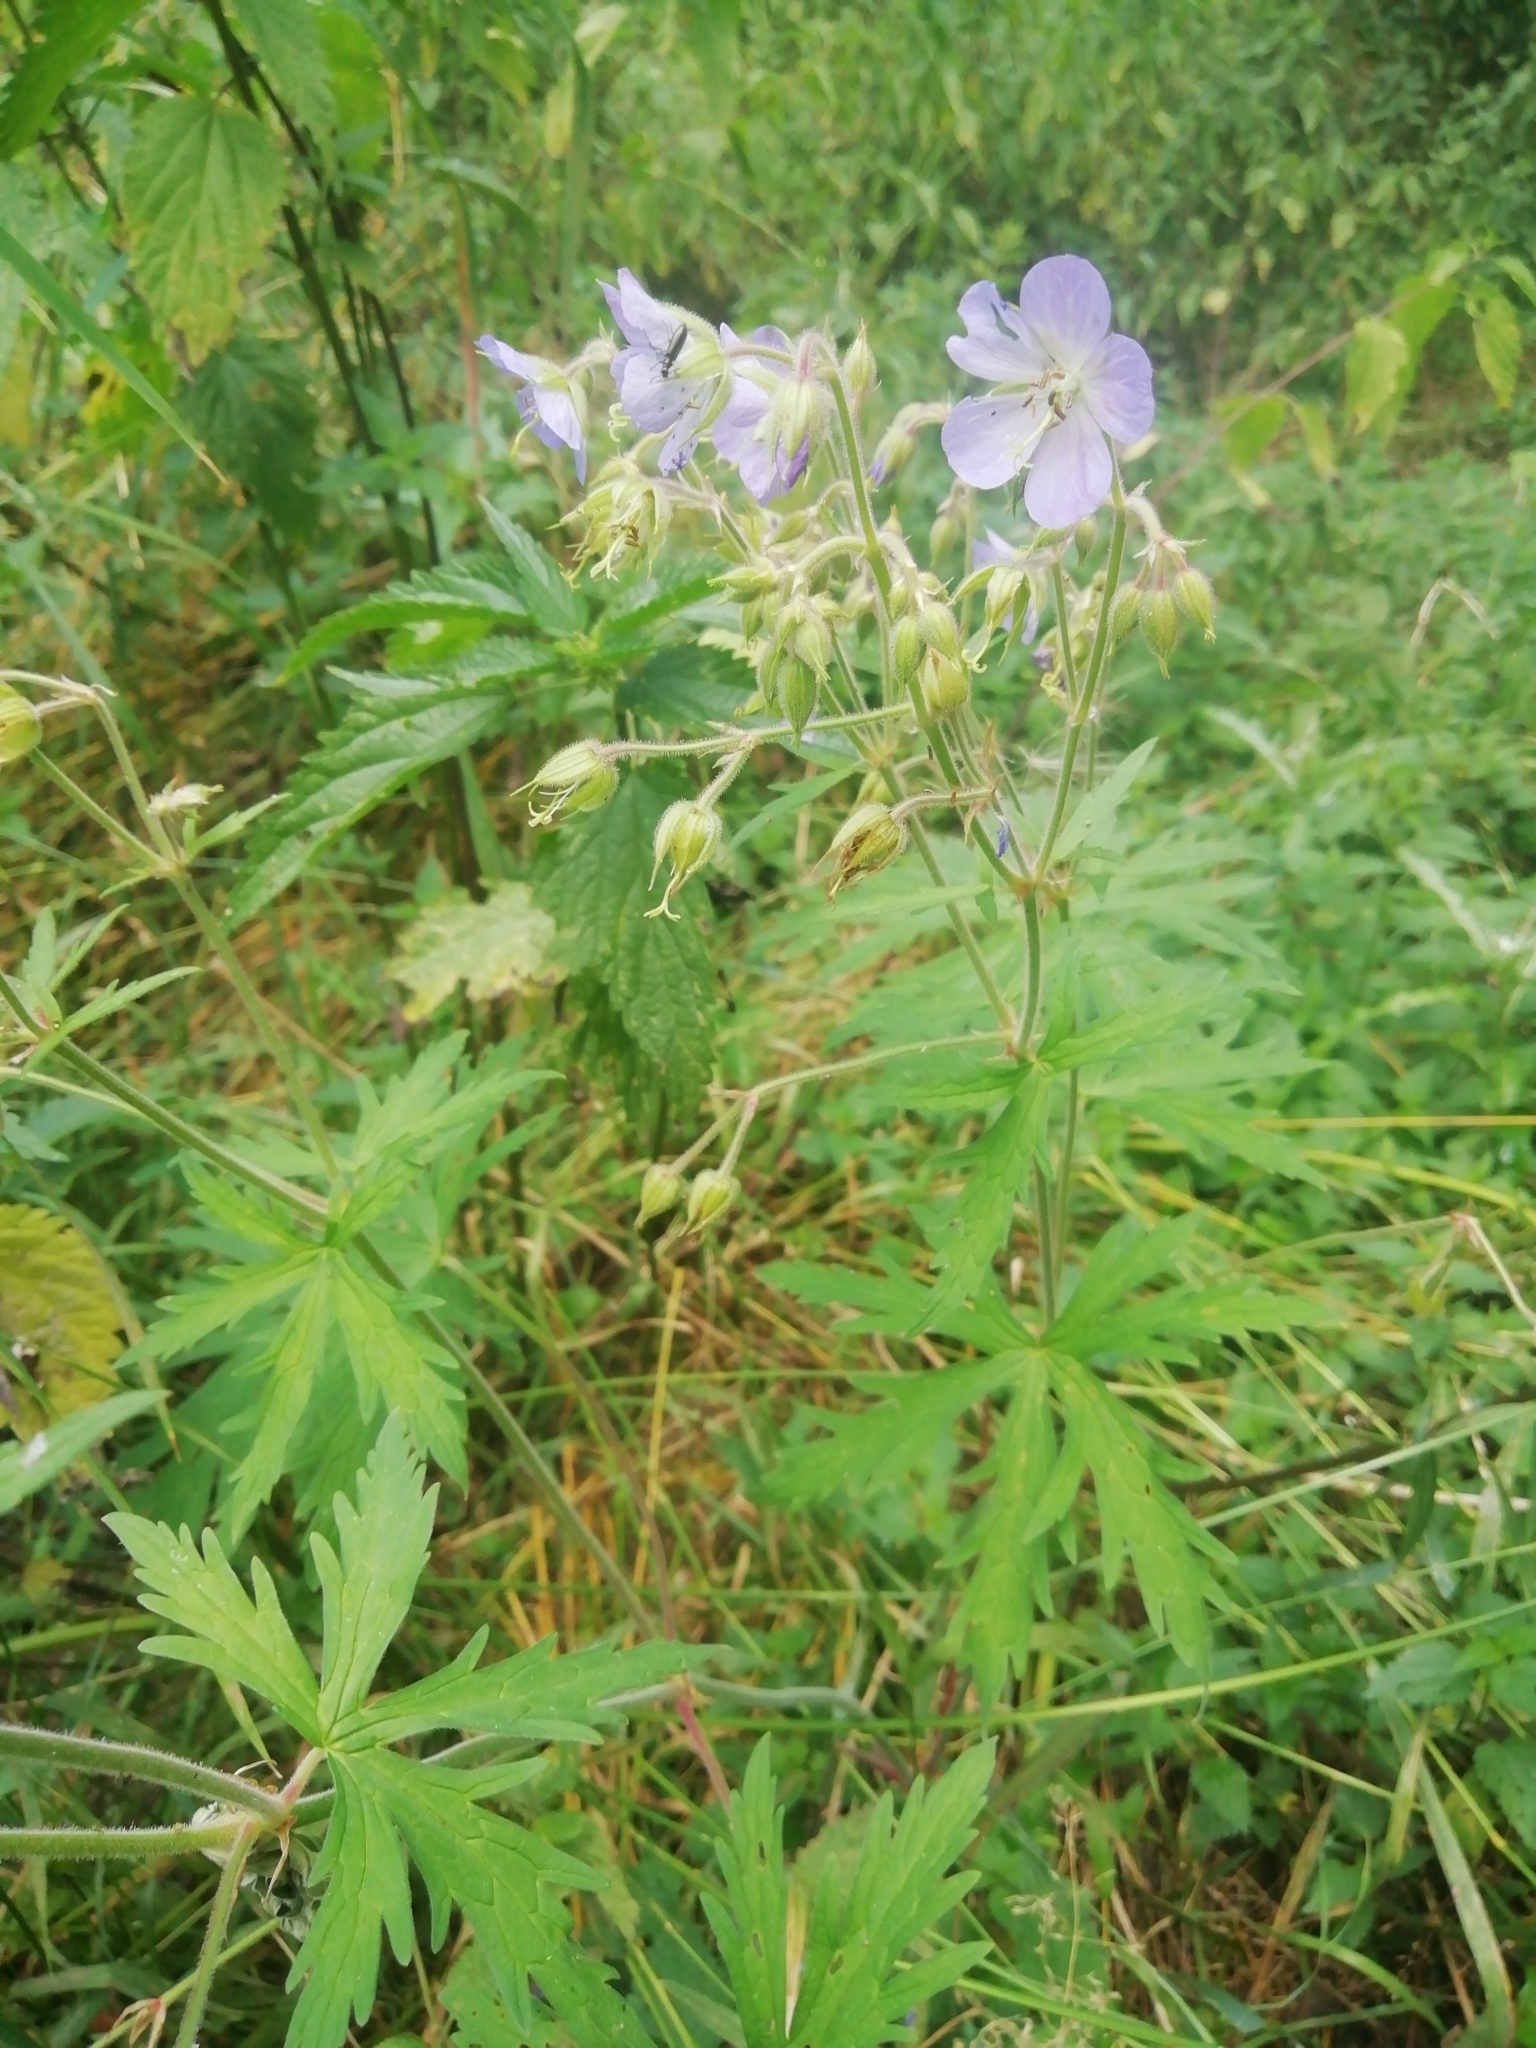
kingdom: Plantae
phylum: Tracheophyta
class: Magnoliopsida
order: Geraniales
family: Geraniaceae
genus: Geranium
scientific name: Geranium pratense
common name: Meadow crane's-bill
